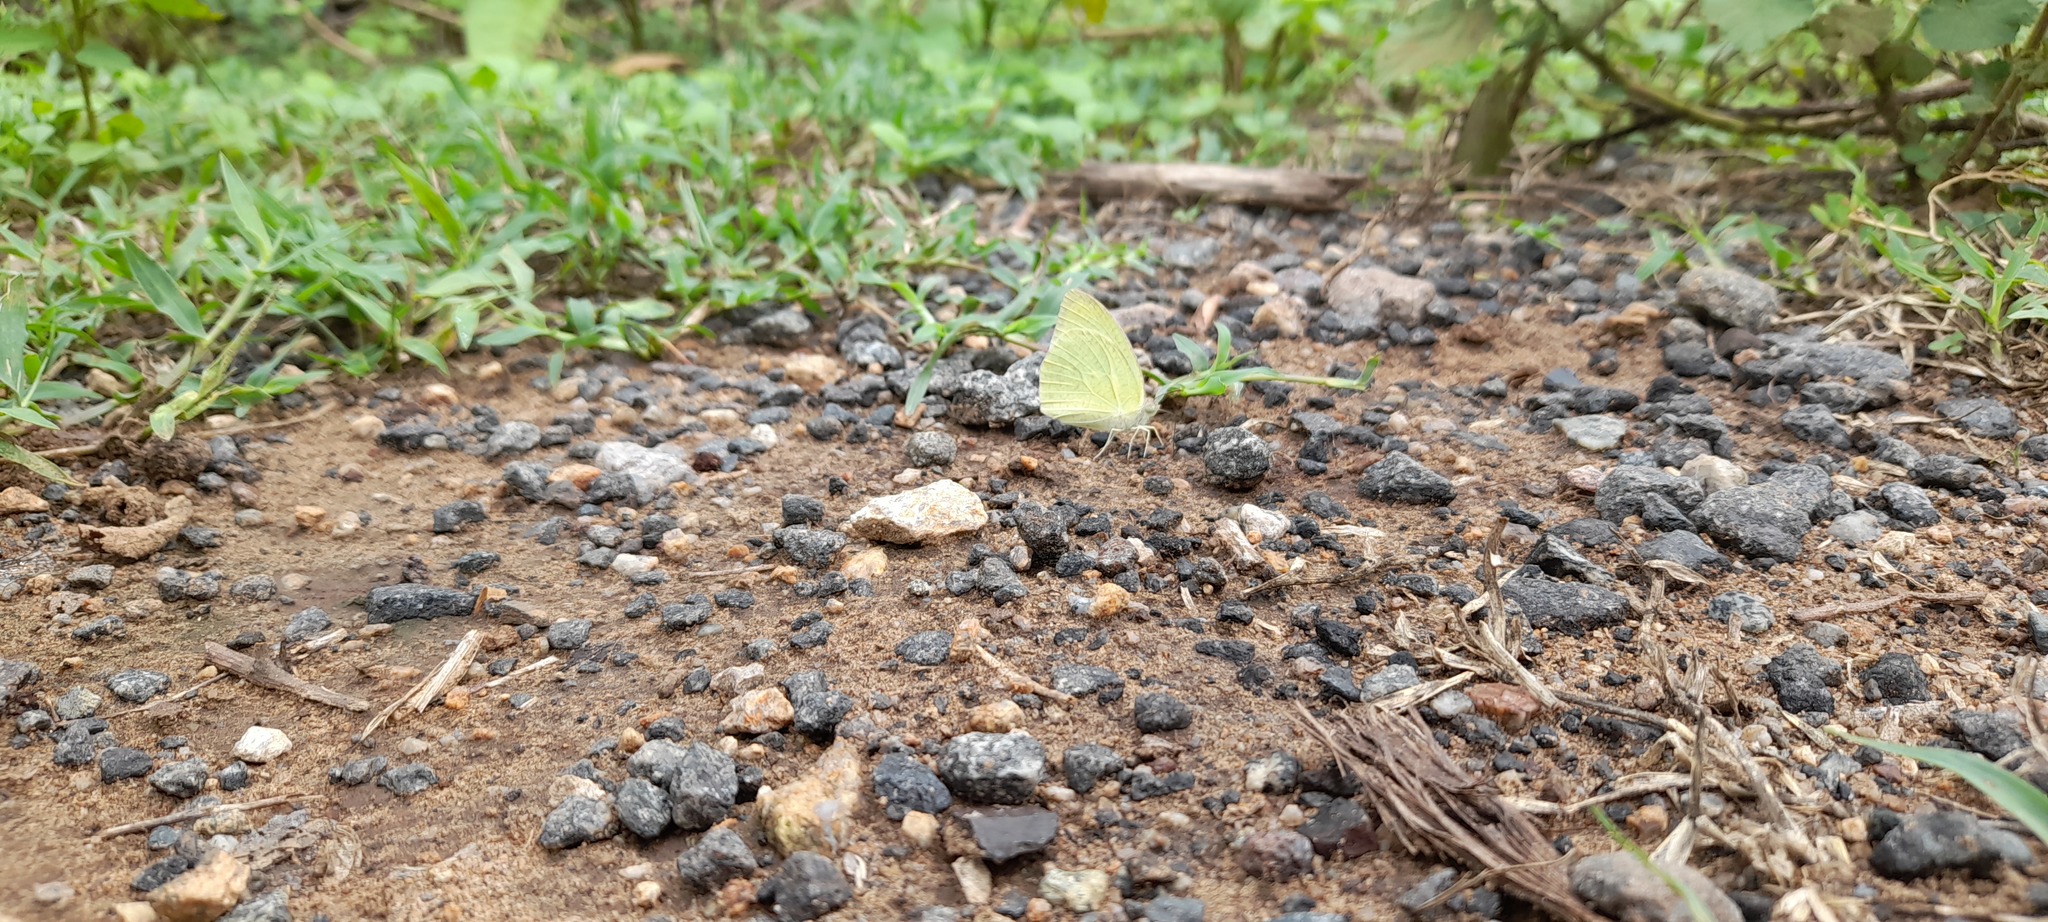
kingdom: Animalia
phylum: Arthropoda
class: Insecta
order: Lepidoptera
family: Pieridae
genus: Catopsilia
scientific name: Catopsilia pyranthe
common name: Mottled emigrant
